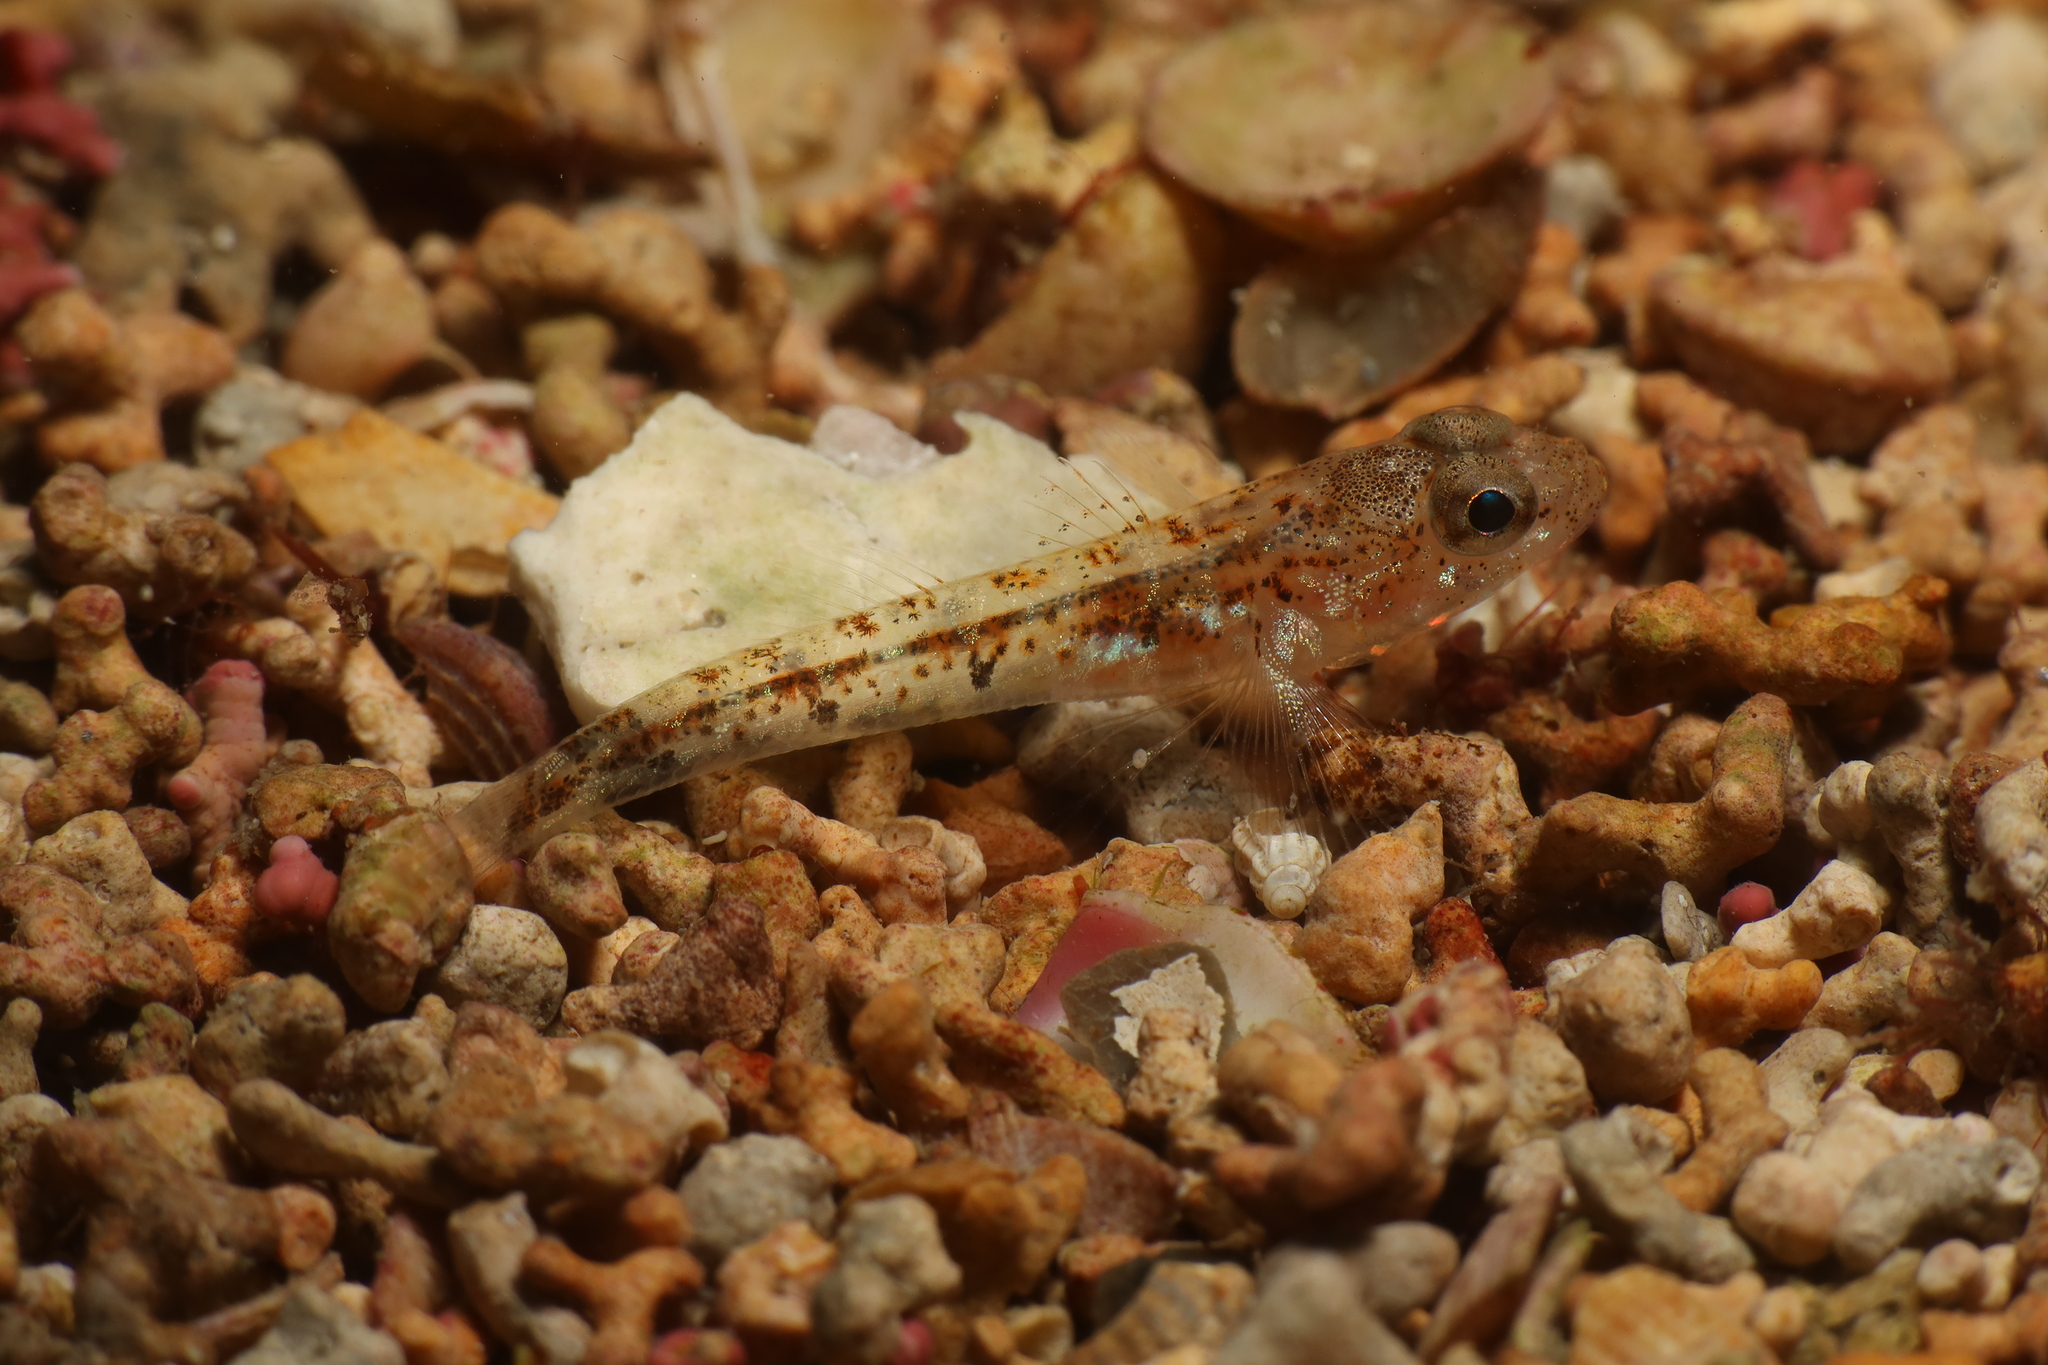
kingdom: Animalia
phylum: Chordata
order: Perciformes
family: Gobiidae
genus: Pomatoschistus
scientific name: Pomatoschistus pictus
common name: Painted goby
